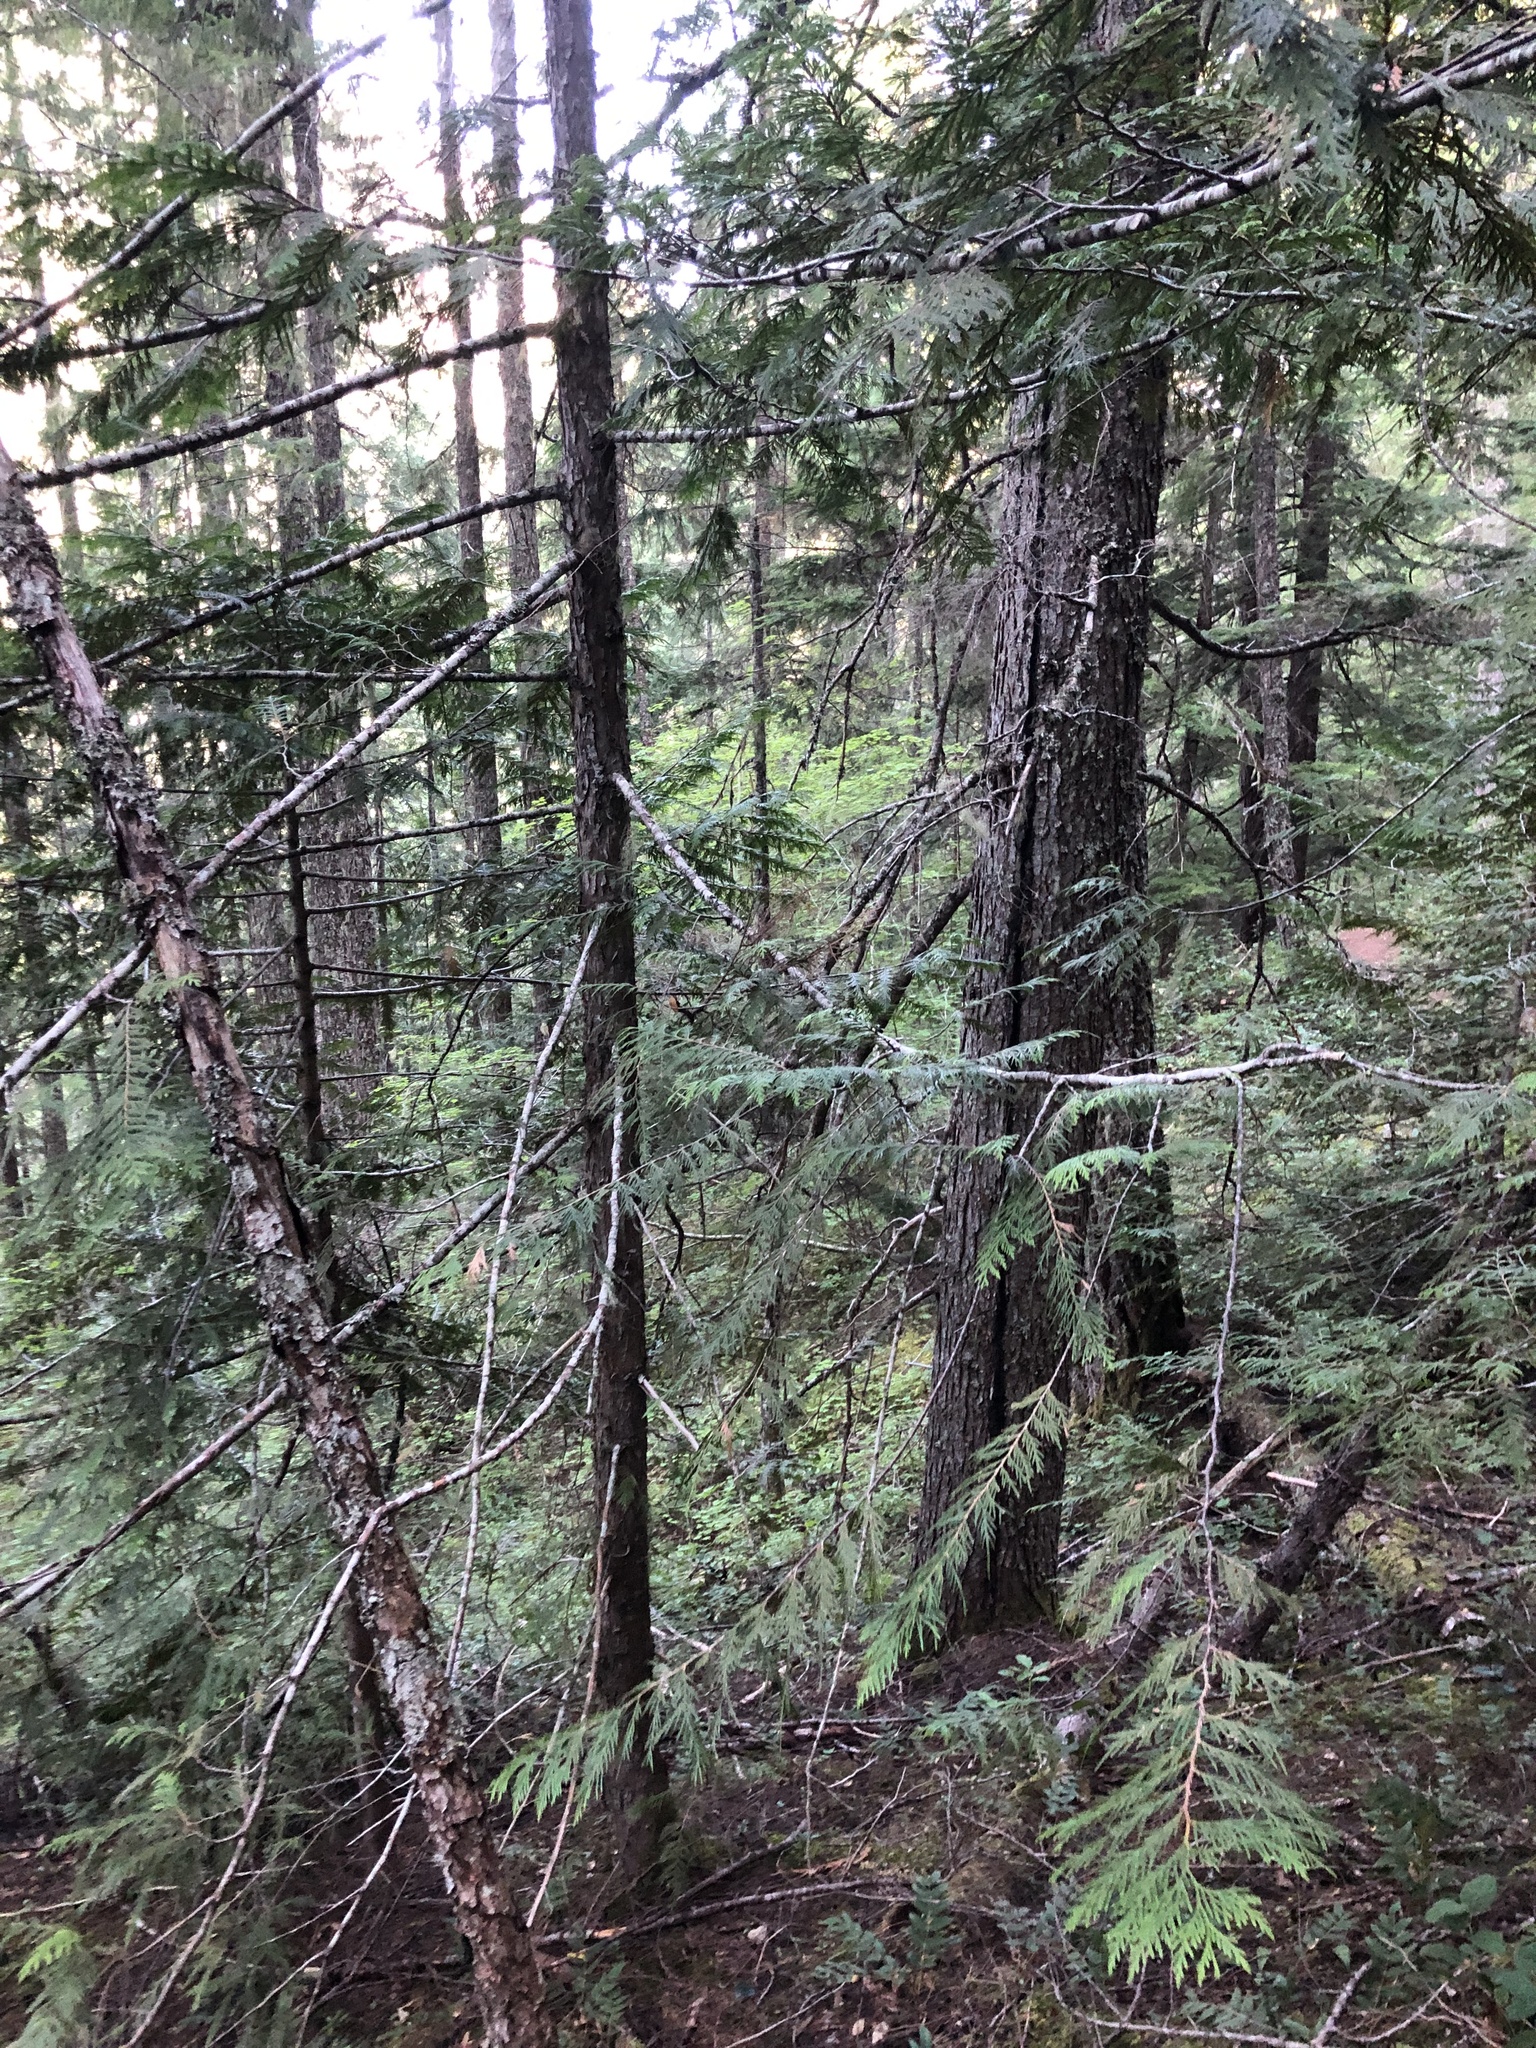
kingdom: Plantae
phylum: Tracheophyta
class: Pinopsida
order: Pinales
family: Cupressaceae
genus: Thuja
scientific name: Thuja plicata
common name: Western red-cedar
